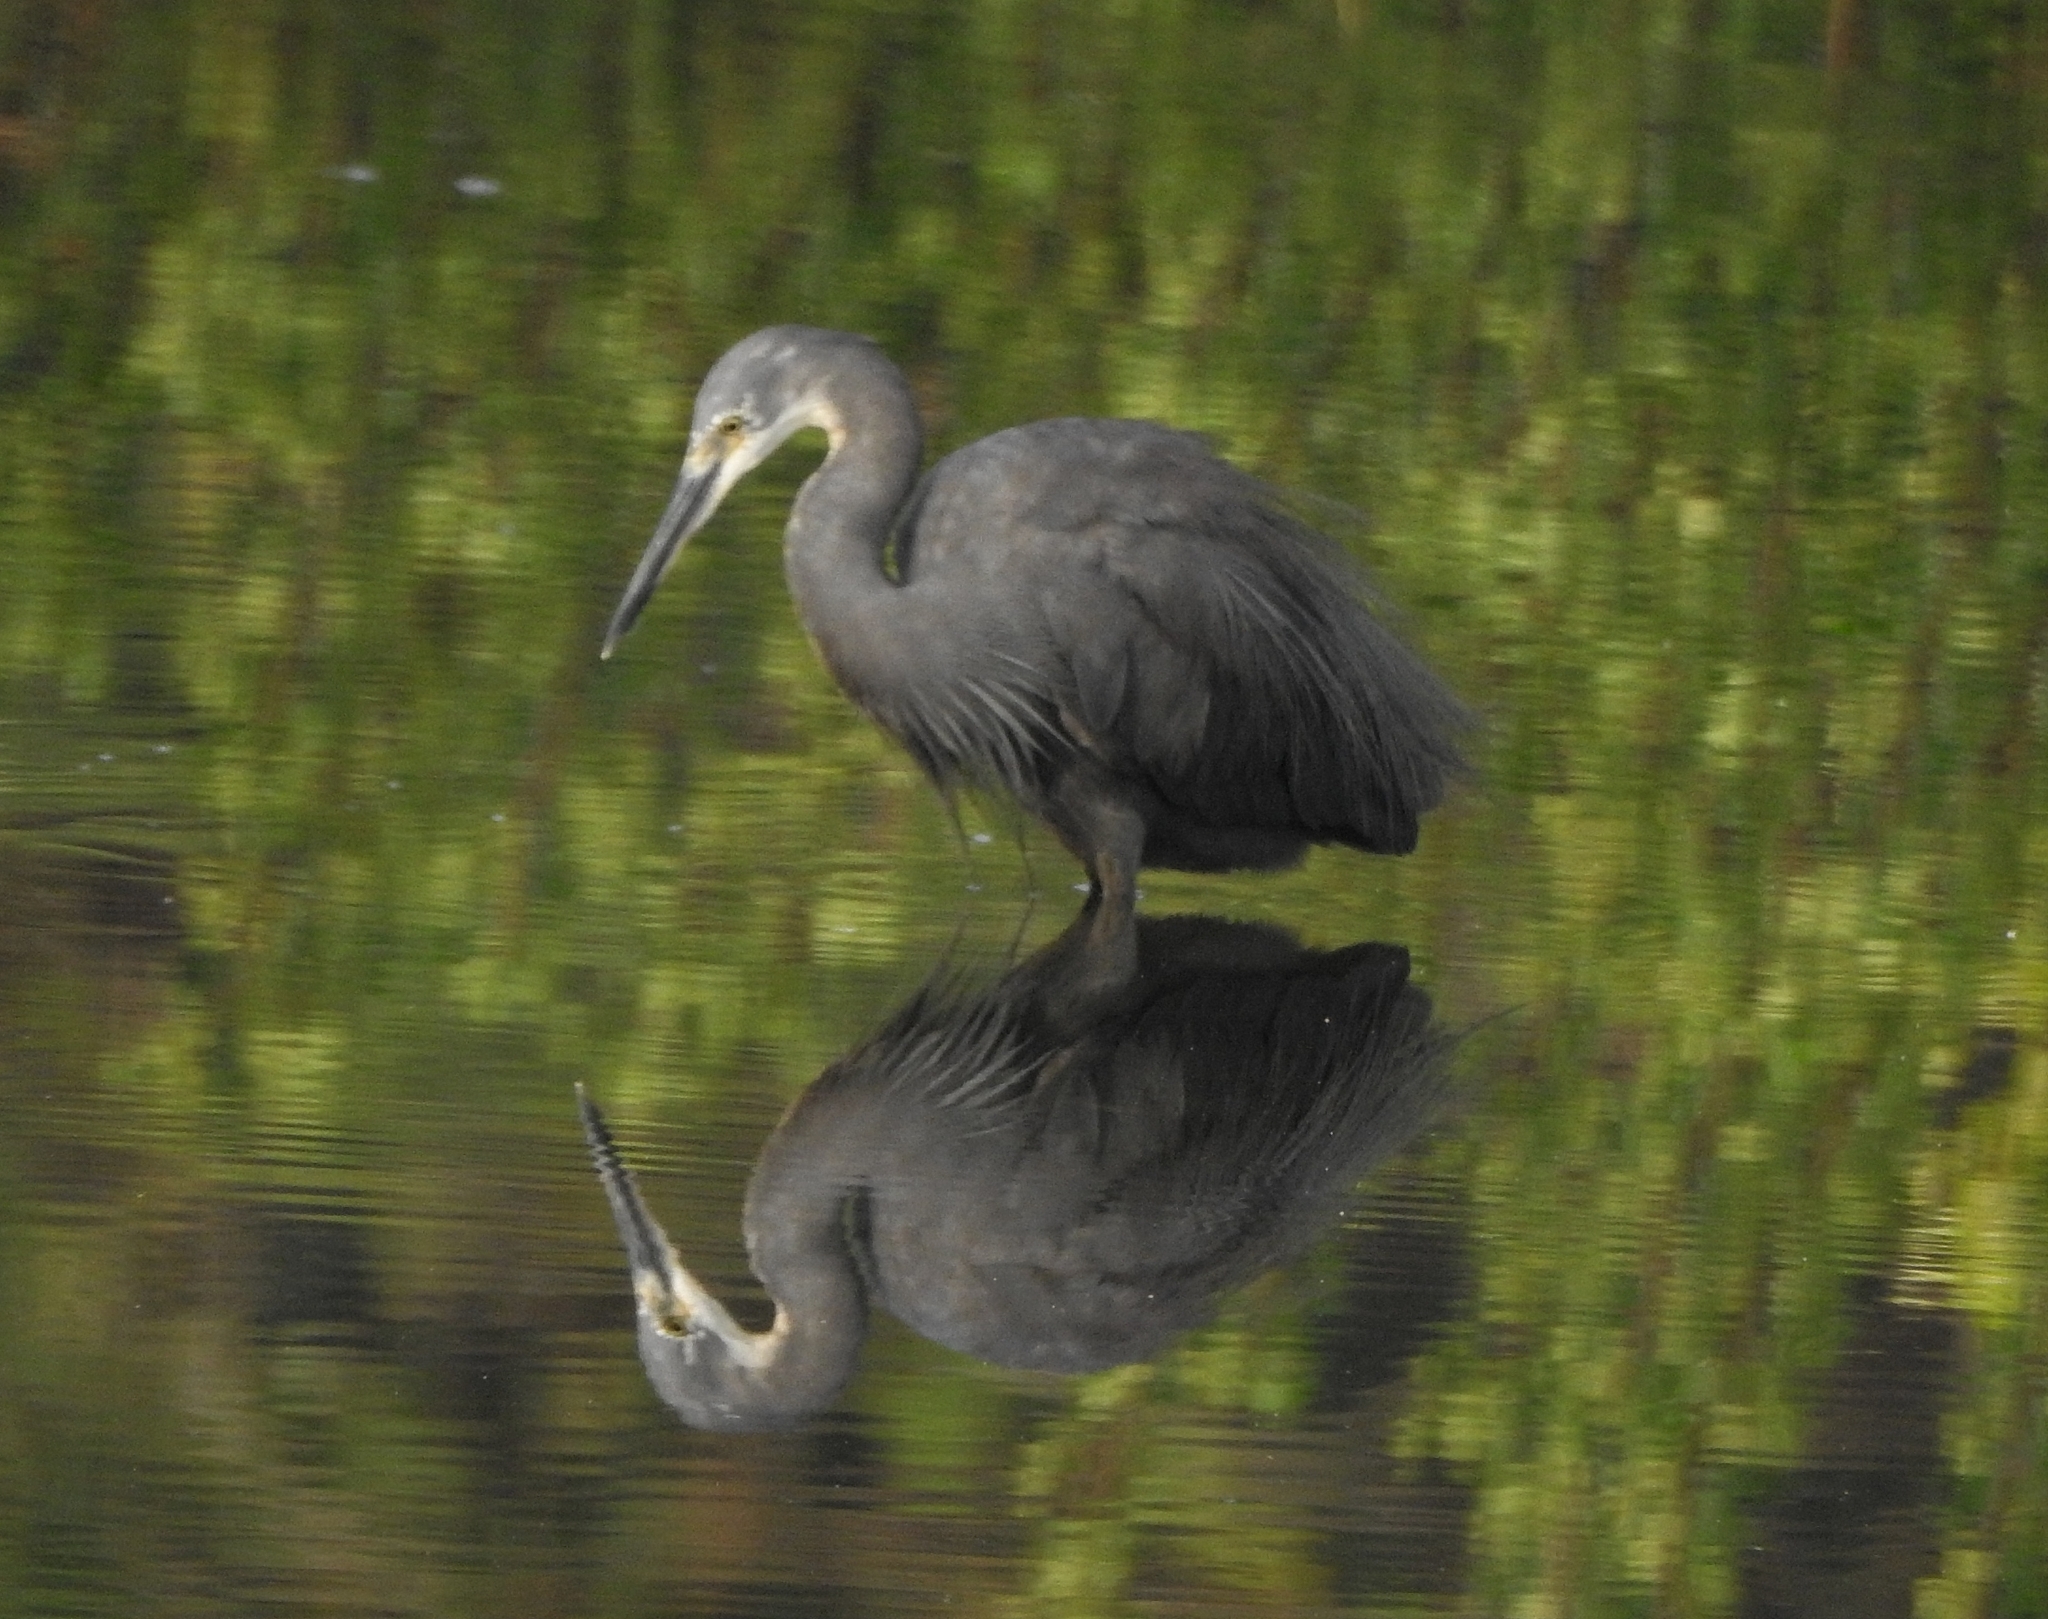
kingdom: Animalia
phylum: Chordata
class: Aves
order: Pelecaniformes
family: Ardeidae
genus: Egretta
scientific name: Egretta garzetta
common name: Little egret
